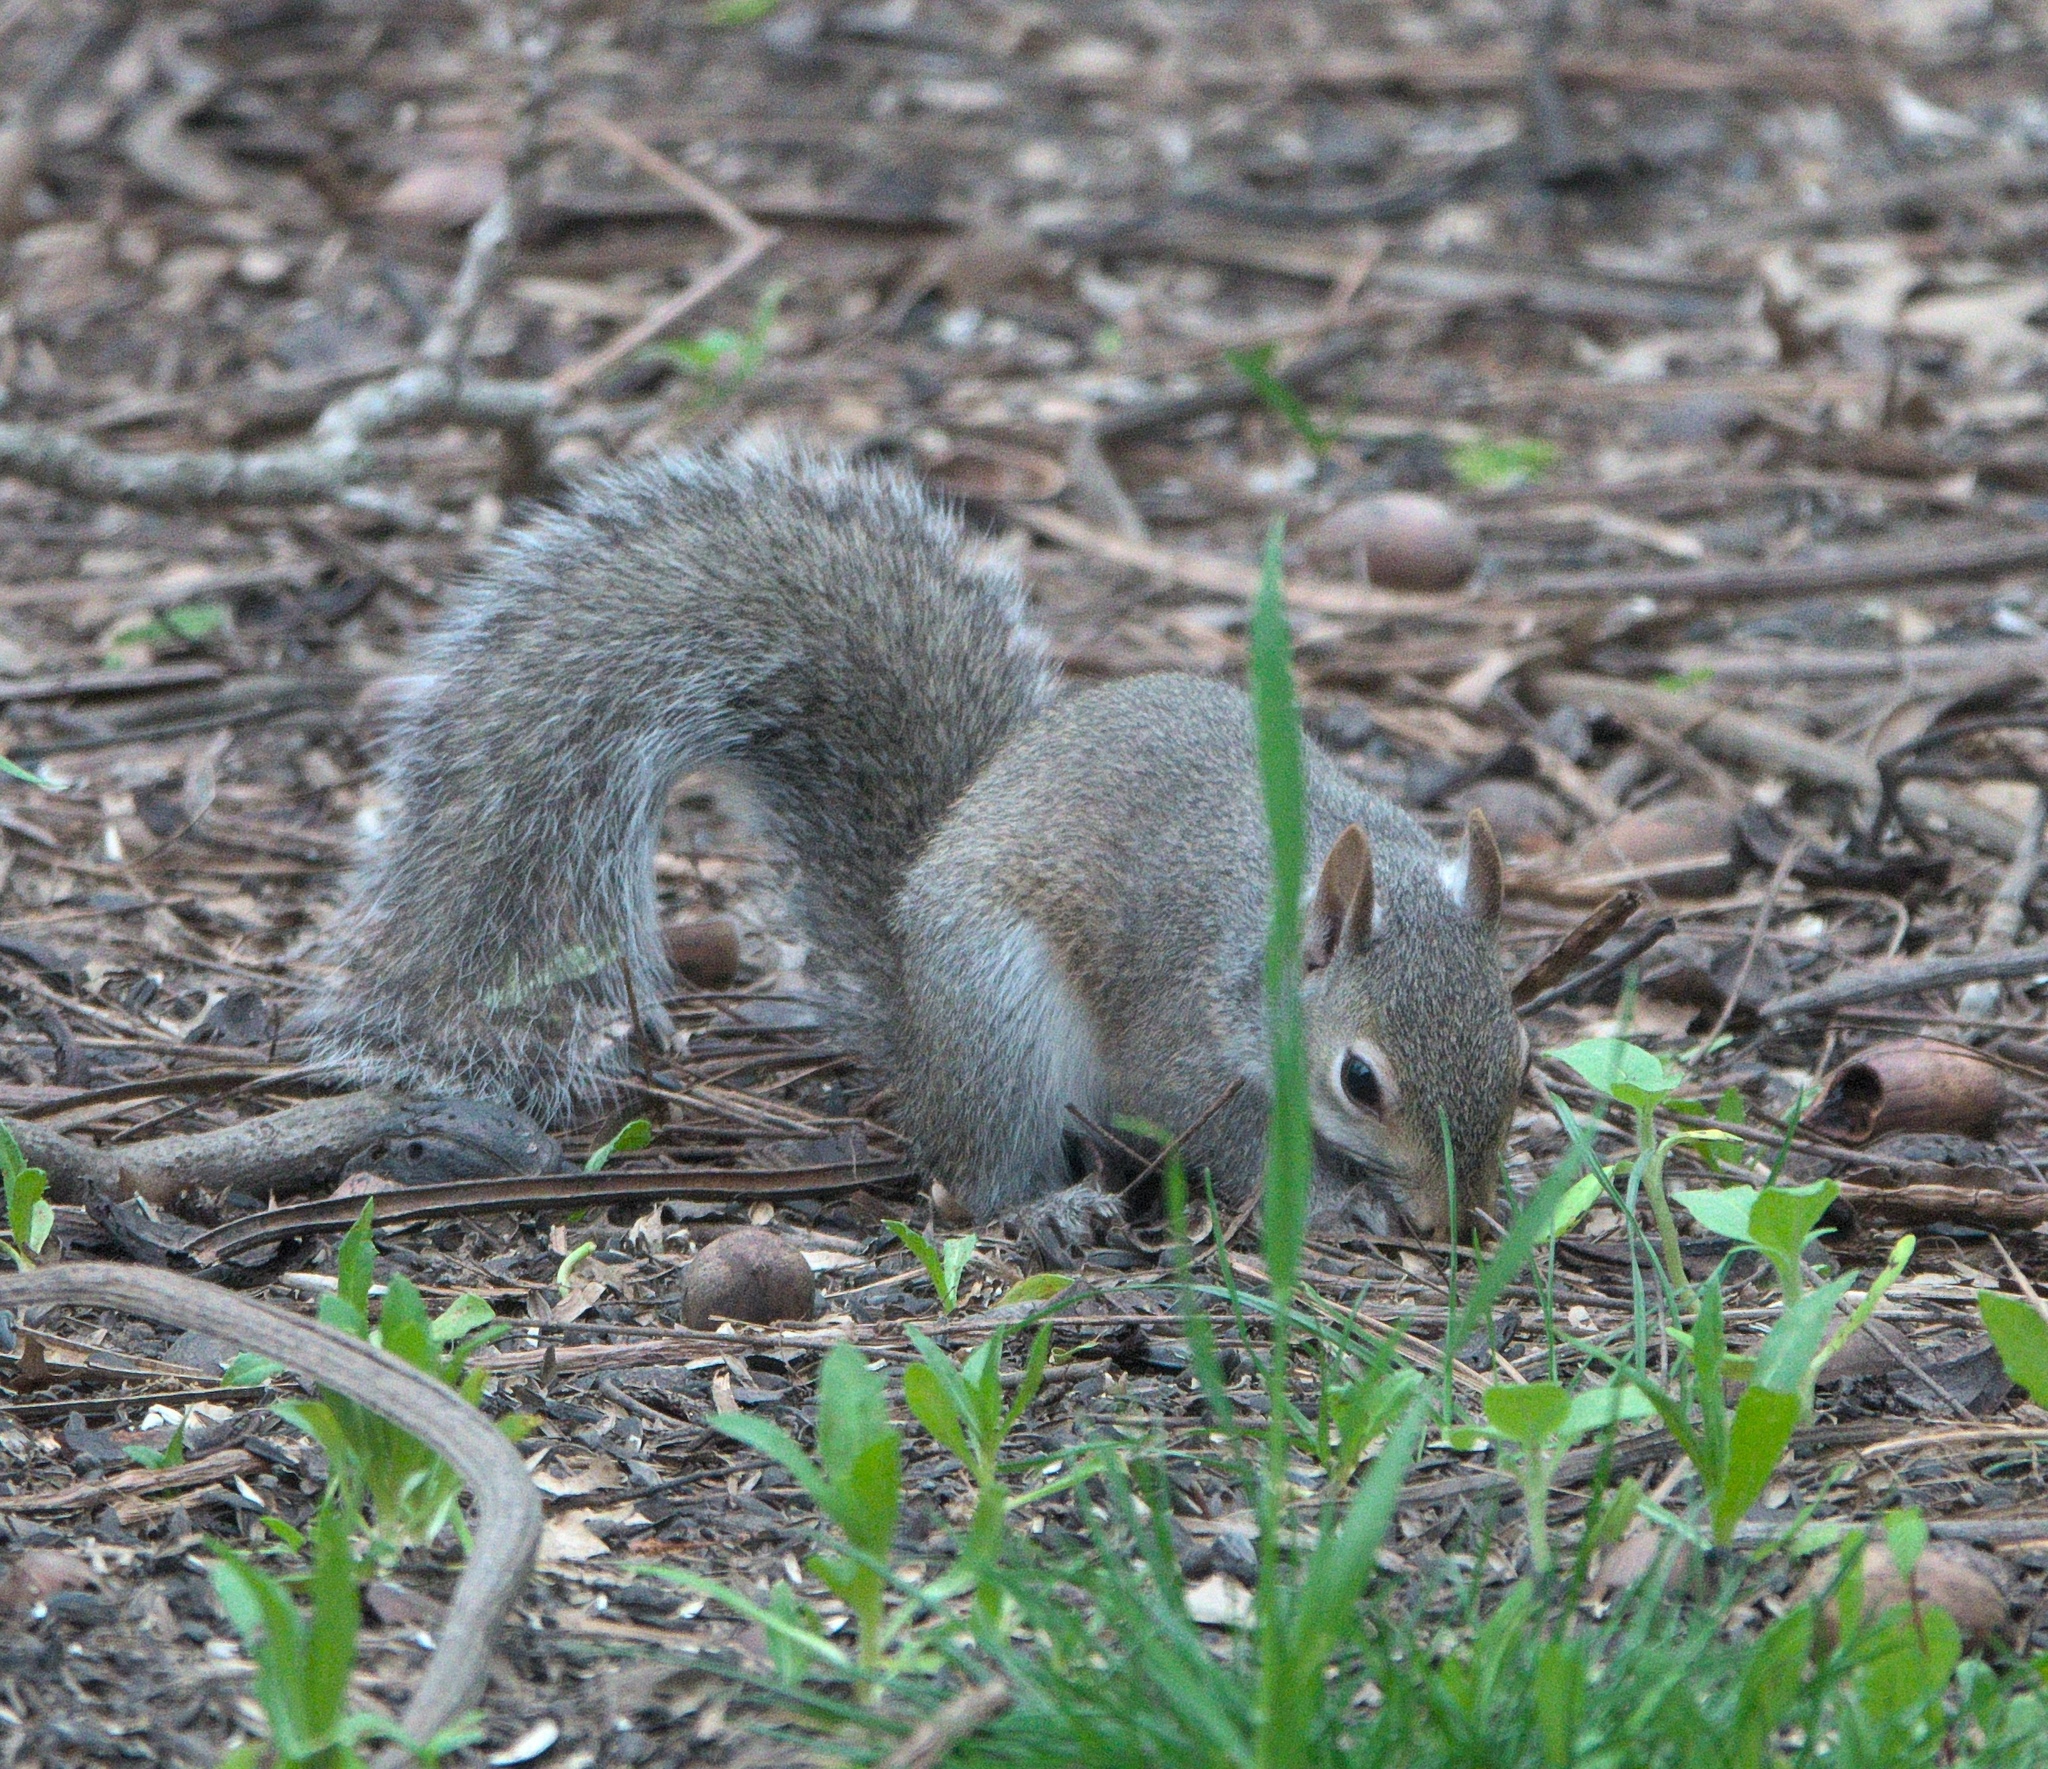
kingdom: Animalia
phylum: Chordata
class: Mammalia
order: Rodentia
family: Sciuridae
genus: Sciurus
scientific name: Sciurus carolinensis
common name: Eastern gray squirrel
